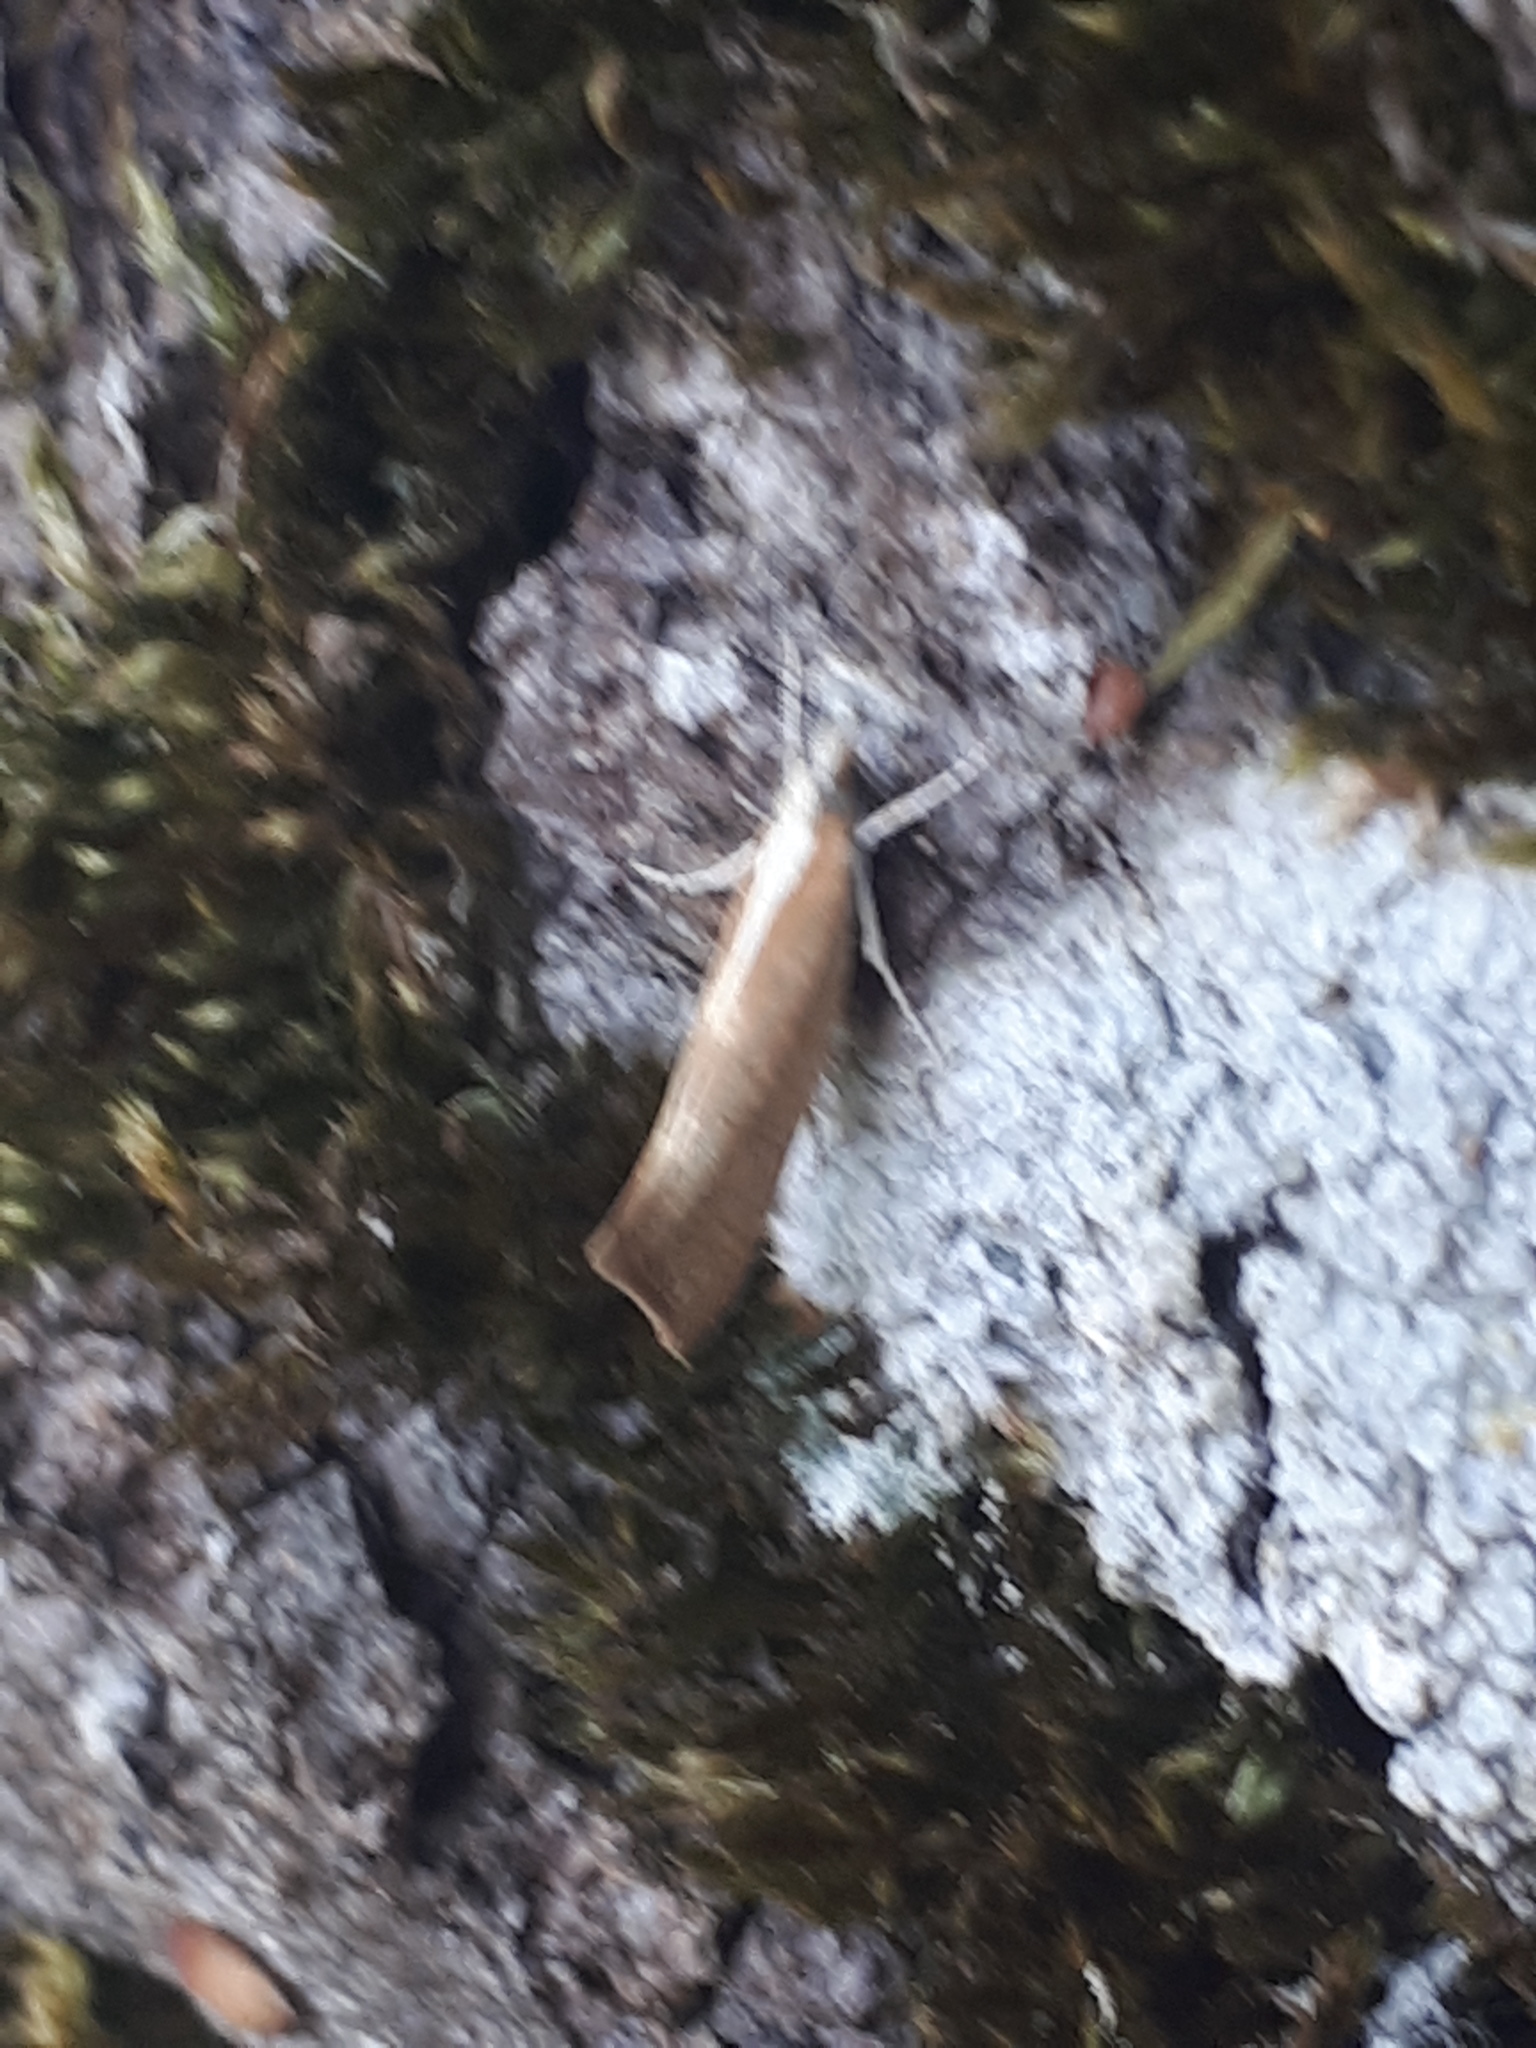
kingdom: Animalia
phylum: Arthropoda
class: Insecta
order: Lepidoptera
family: Ypsolophidae
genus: Ypsolopha
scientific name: Ypsolopha lucella
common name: Plain smudge
